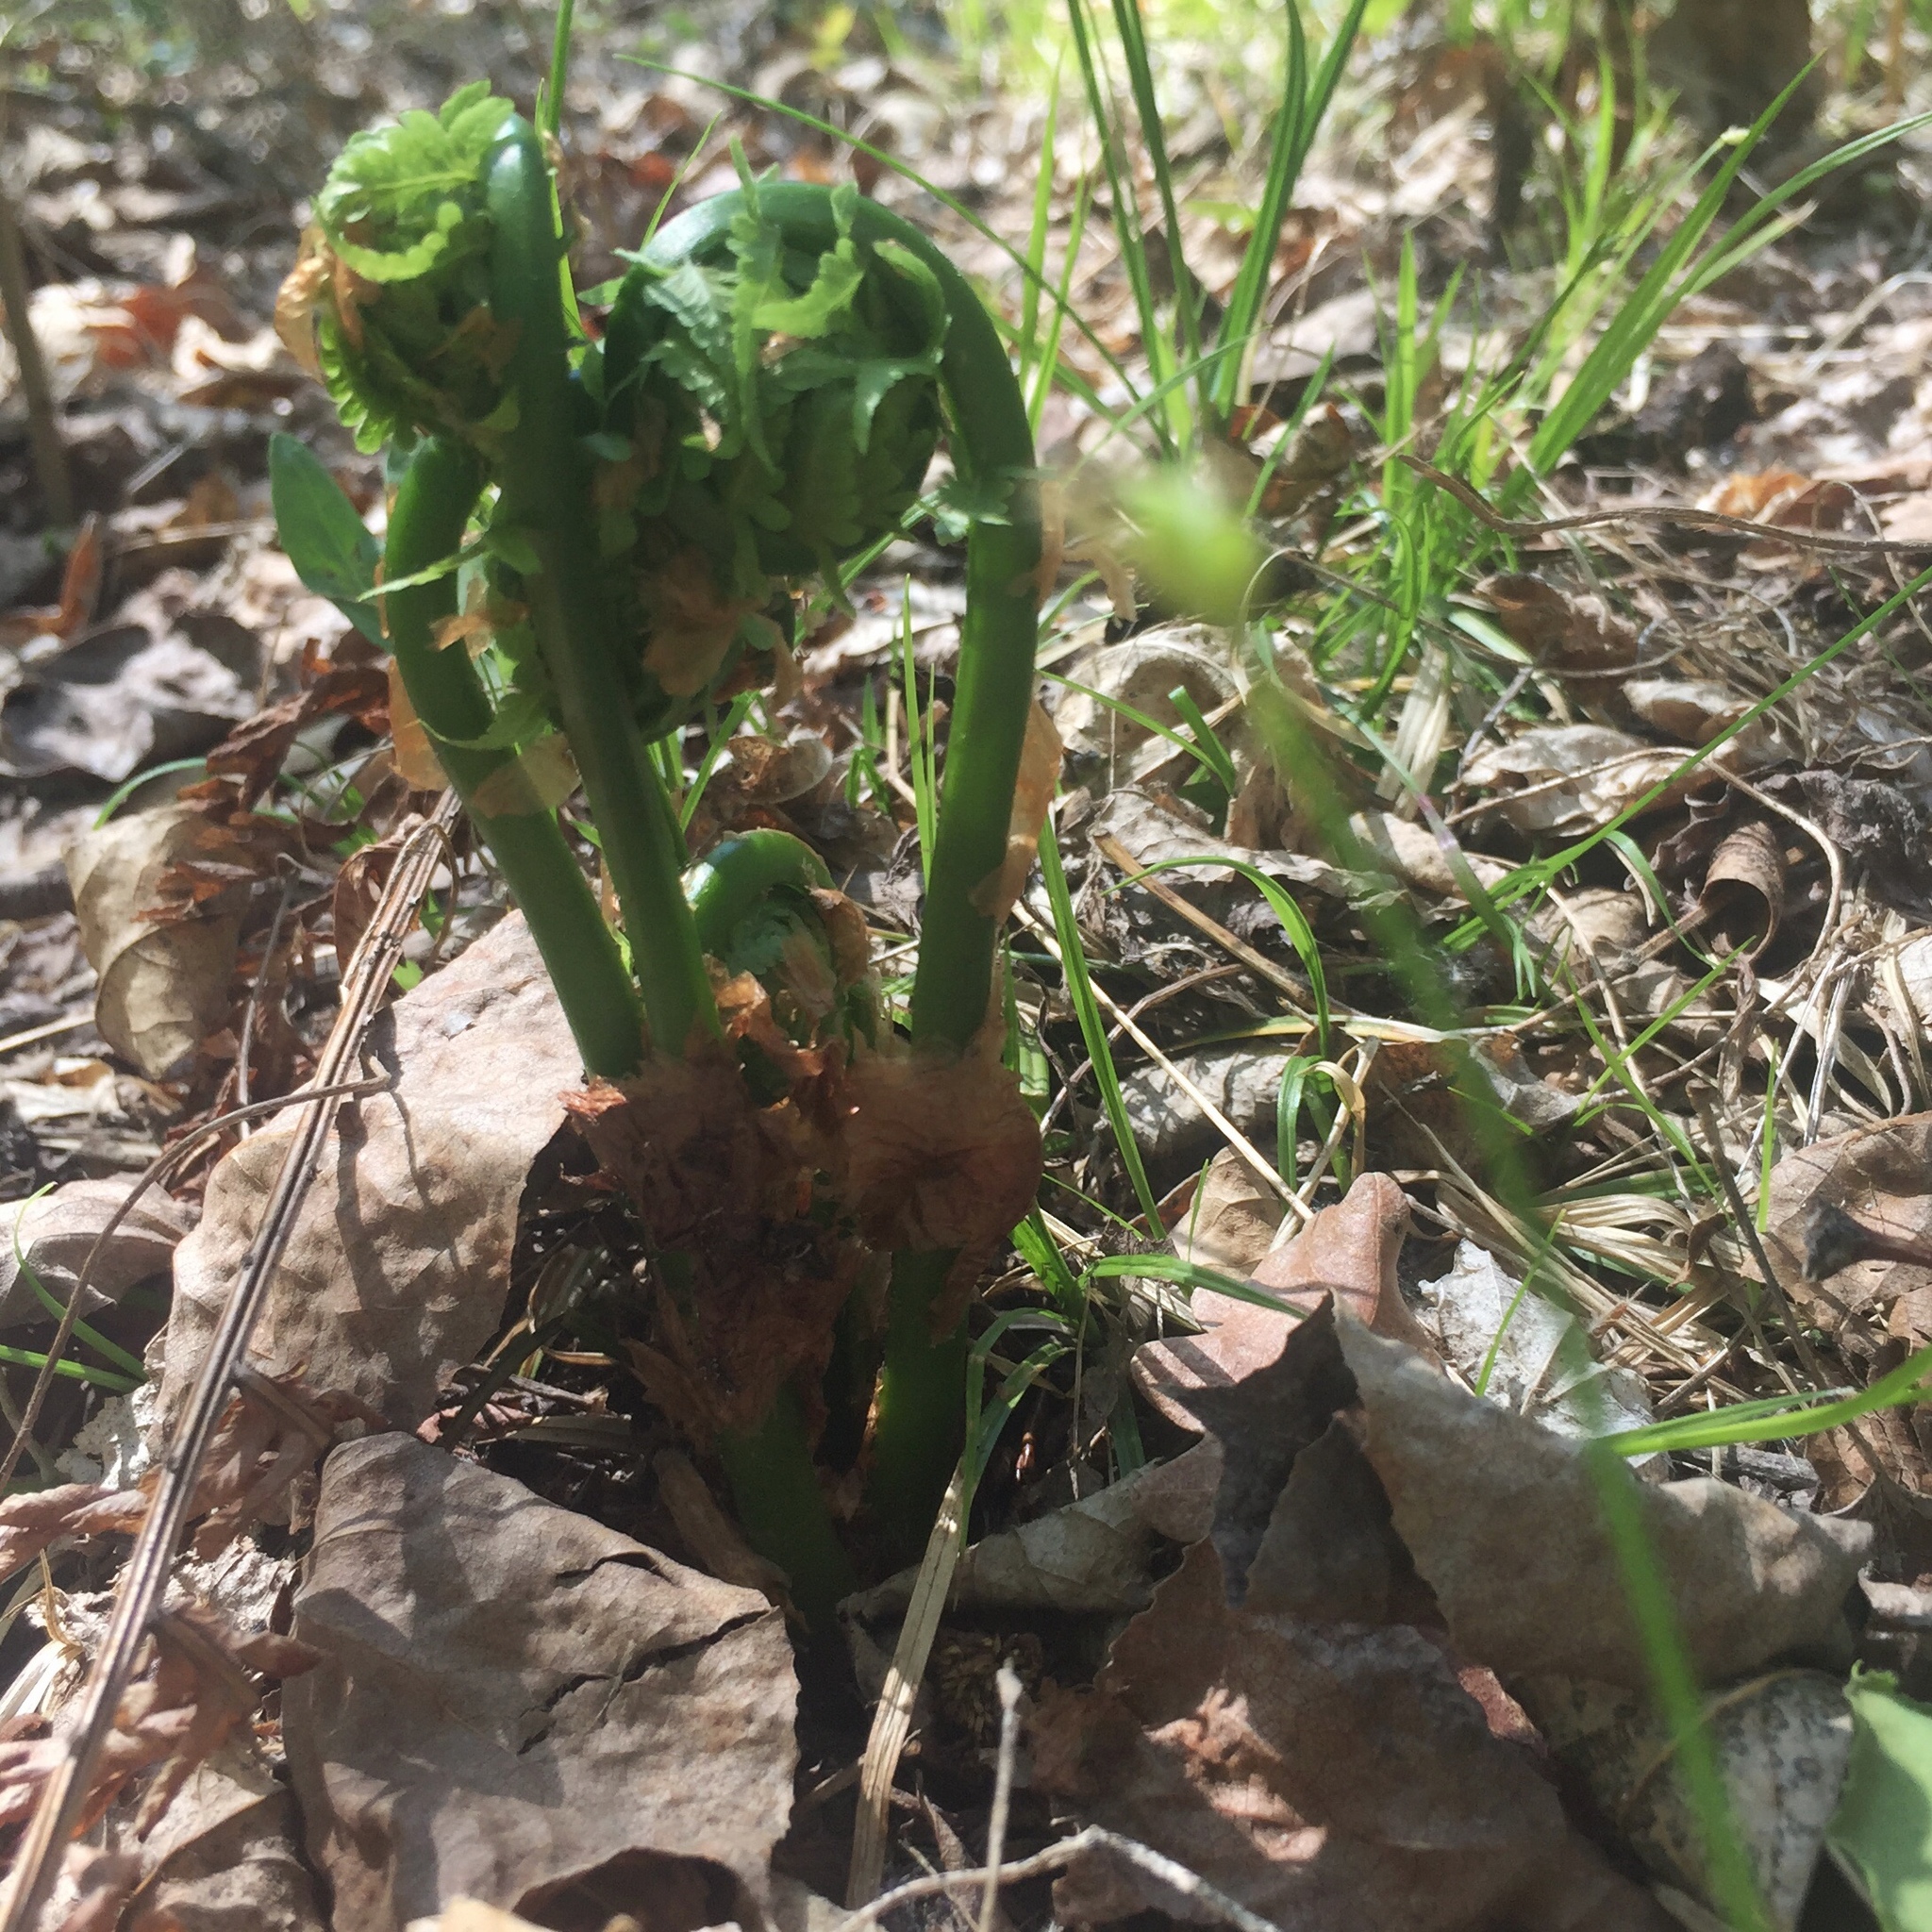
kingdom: Plantae
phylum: Tracheophyta
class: Polypodiopsida
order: Polypodiales
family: Onocleaceae
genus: Matteuccia
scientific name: Matteuccia struthiopteris
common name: Ostrich fern
